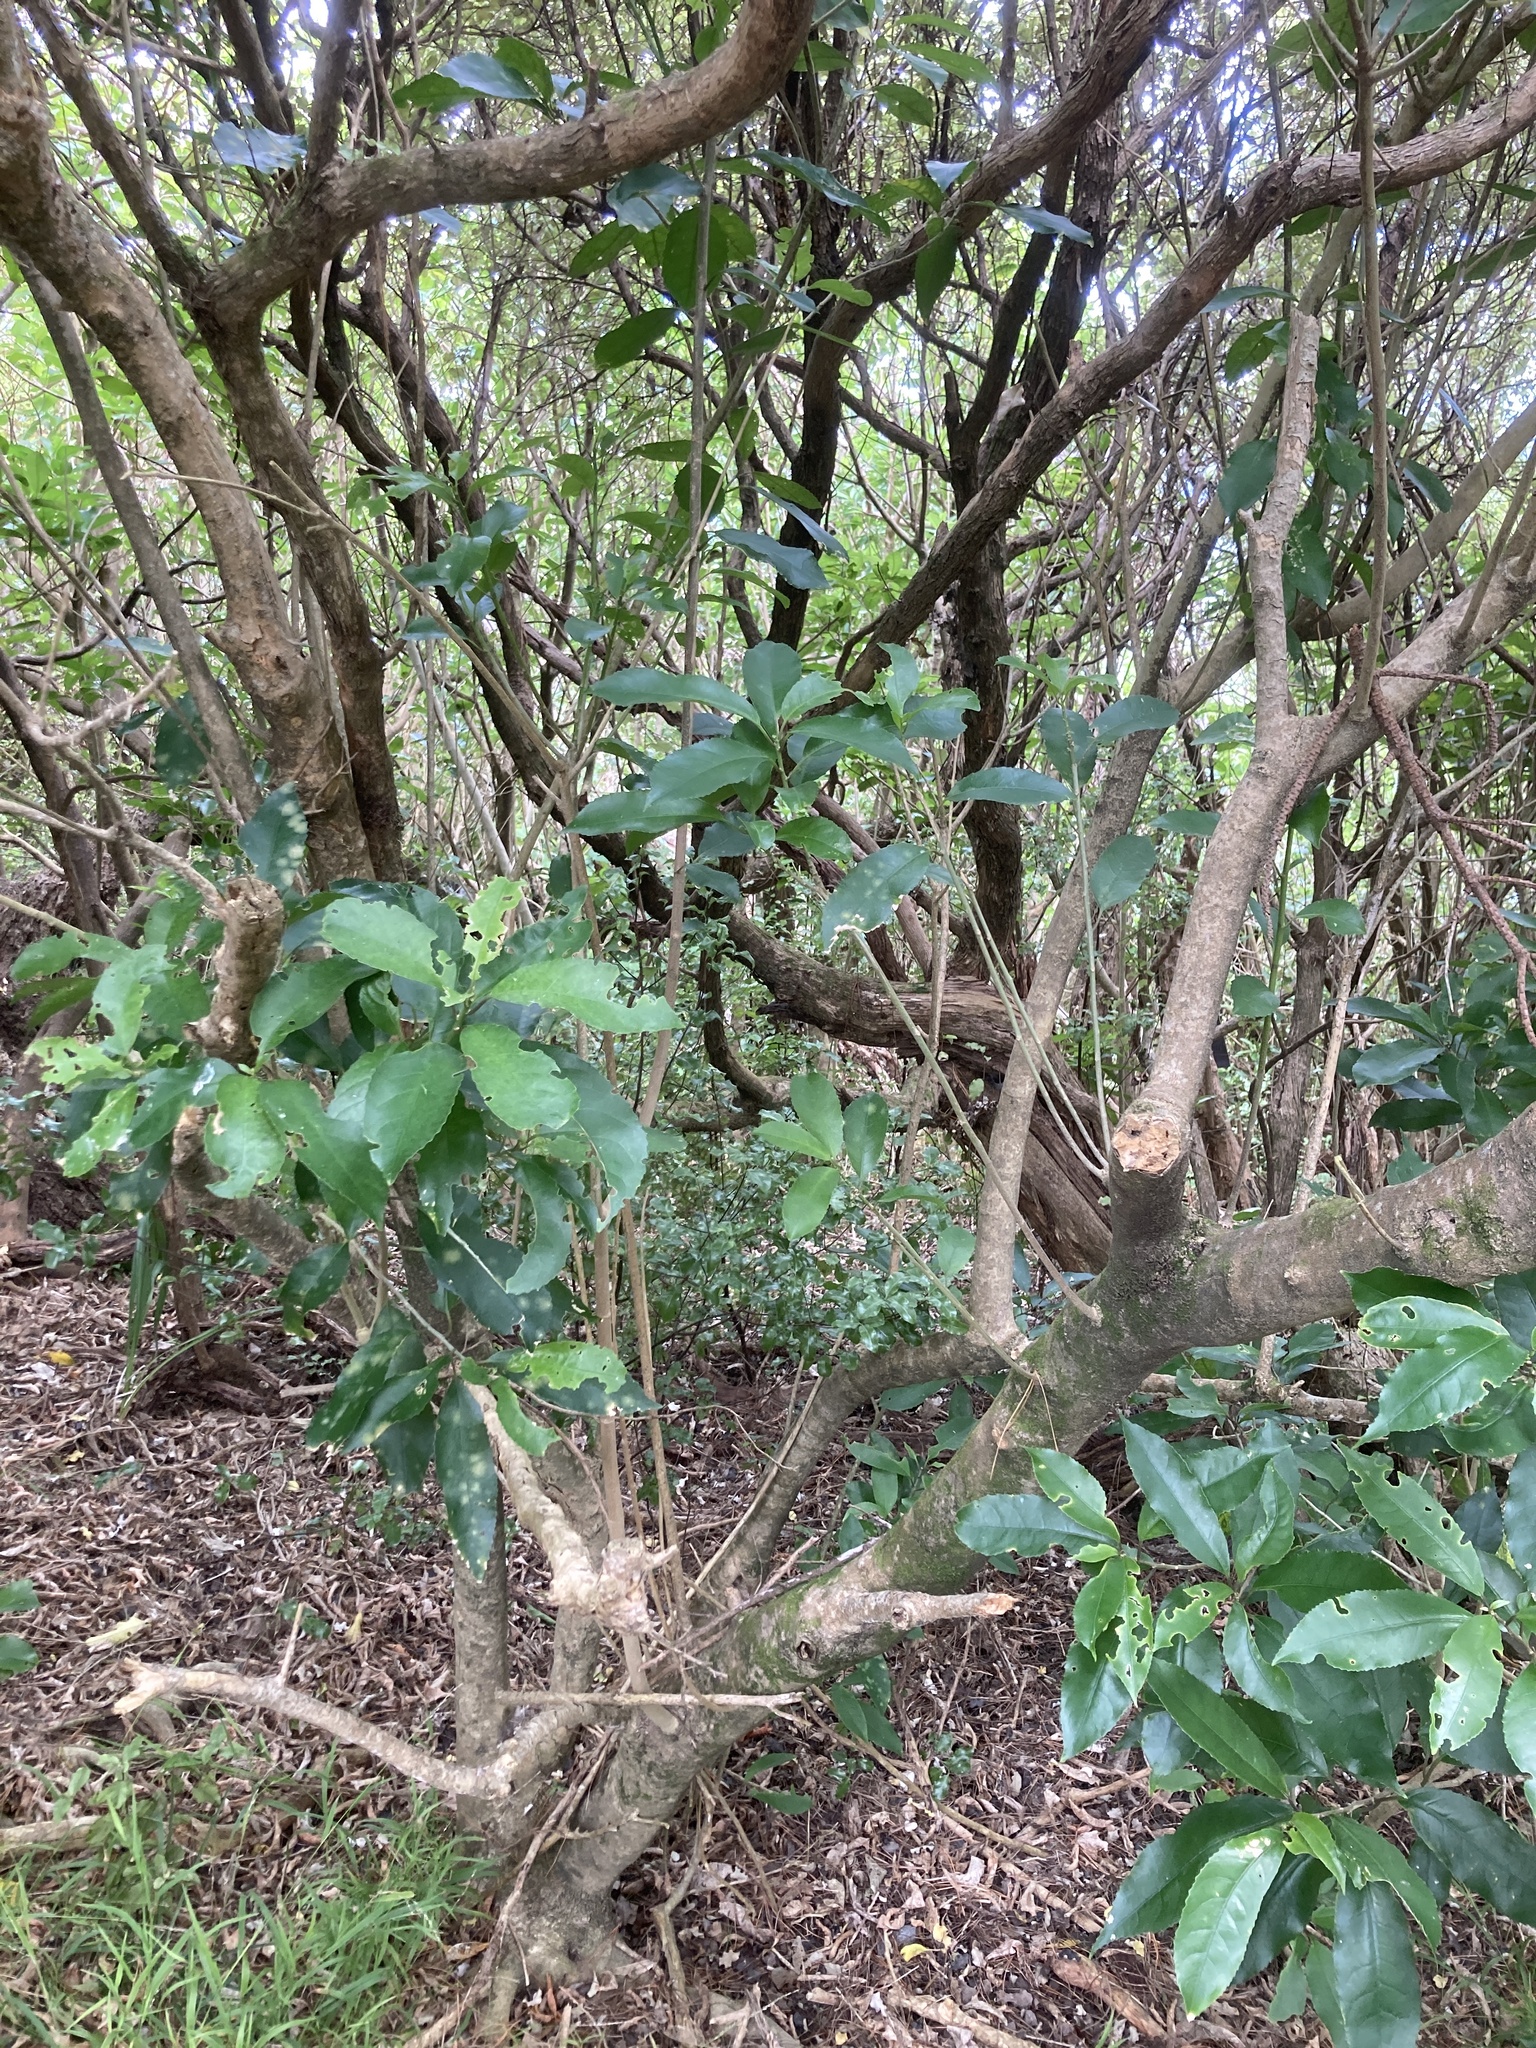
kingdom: Plantae
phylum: Tracheophyta
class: Magnoliopsida
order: Malpighiales
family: Violaceae
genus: Melicytus
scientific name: Melicytus ramiflorus
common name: Mahoe
